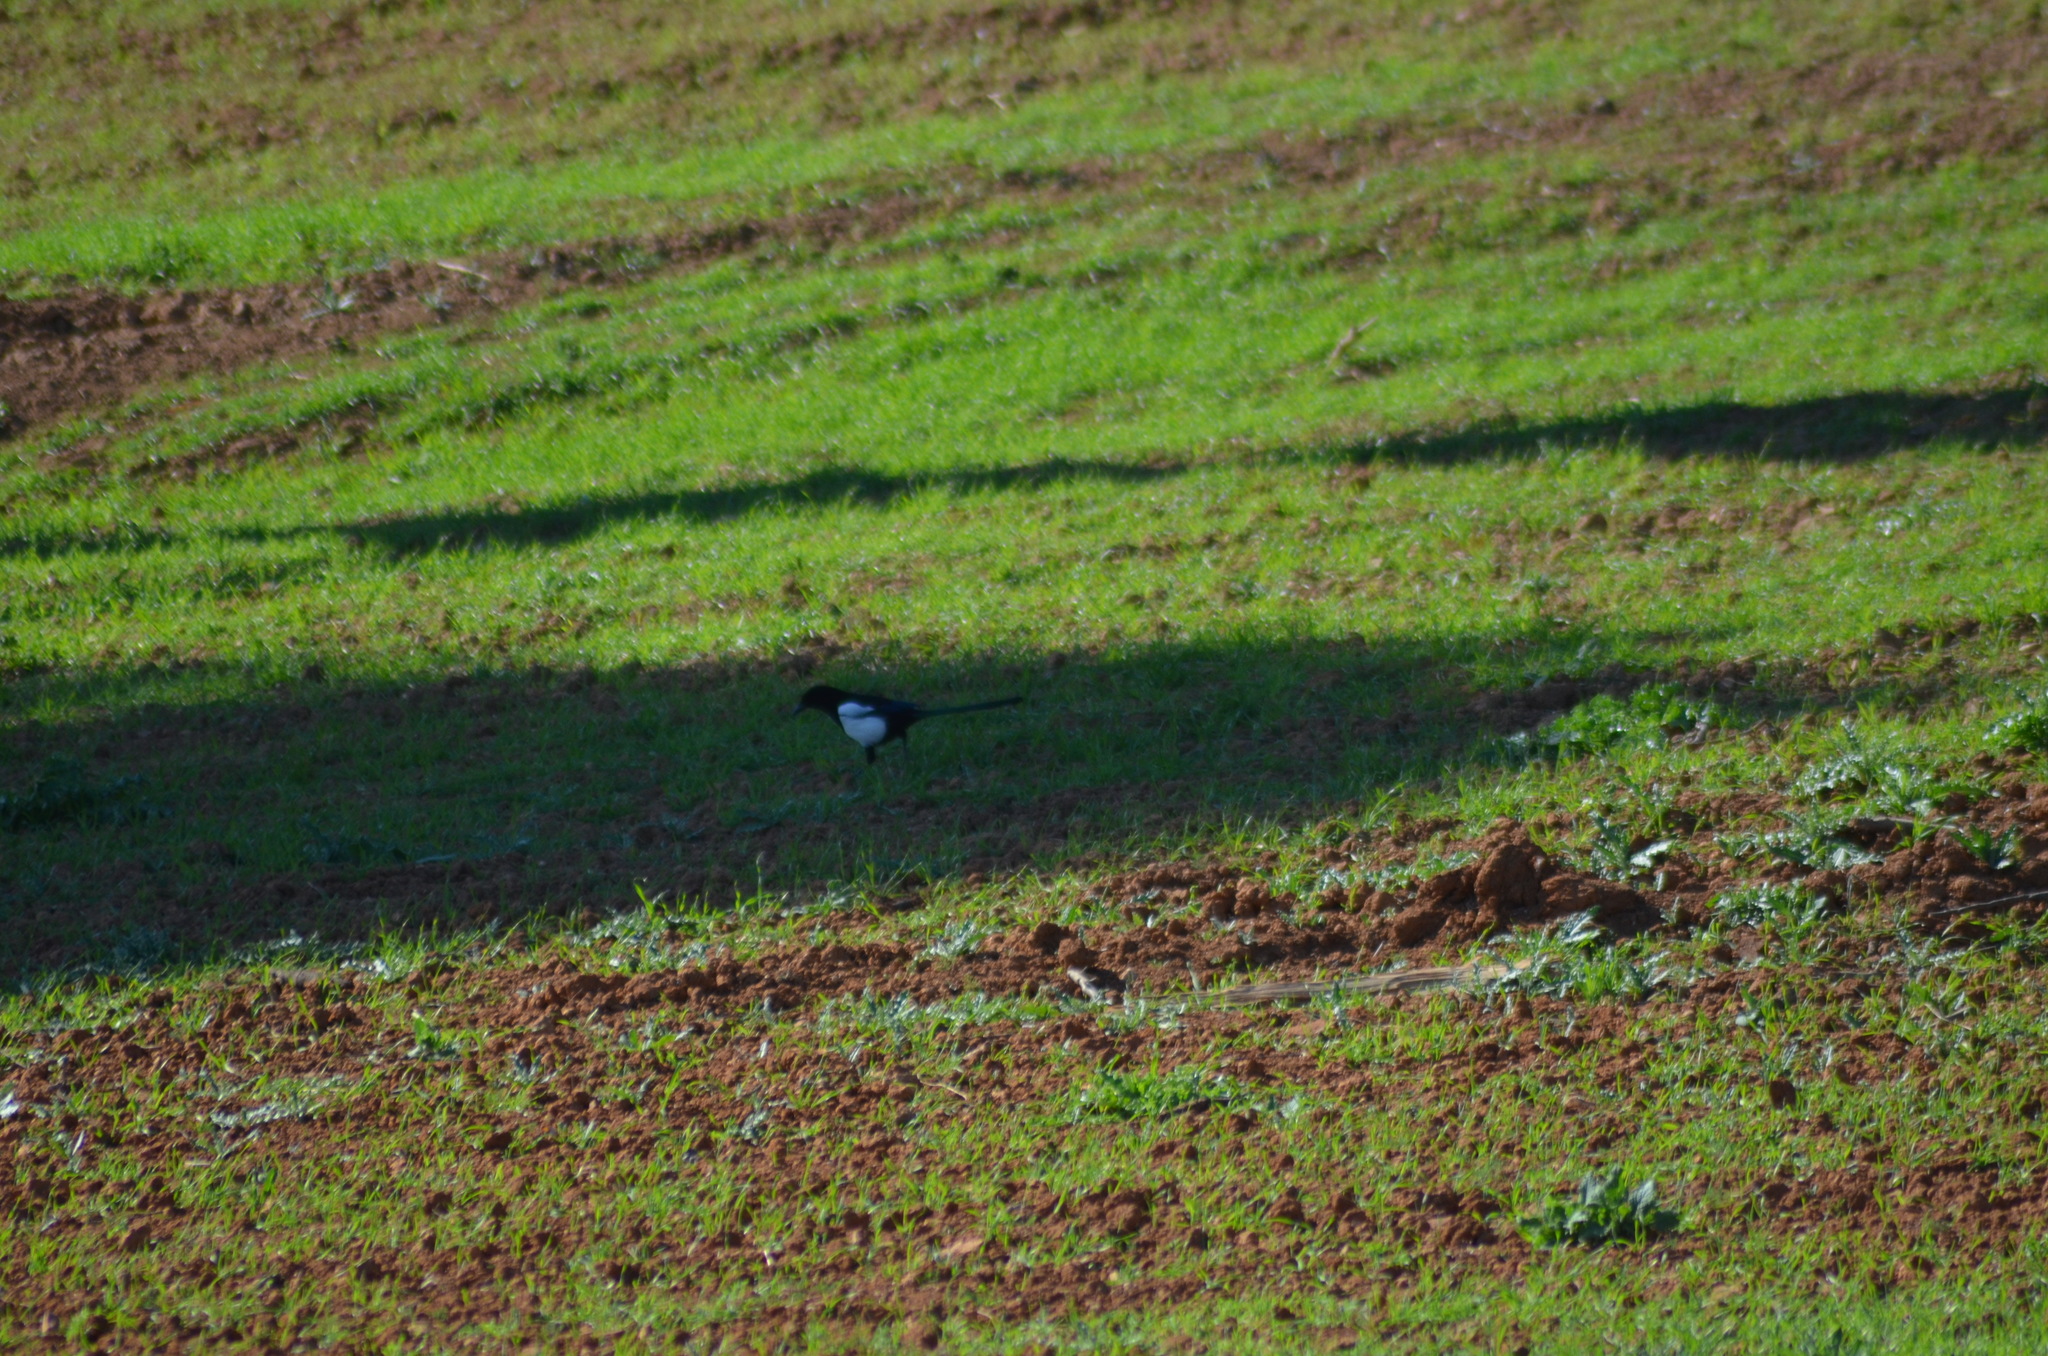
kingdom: Animalia
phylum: Chordata
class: Aves
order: Passeriformes
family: Corvidae
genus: Pica
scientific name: Pica pica
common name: Eurasian magpie
